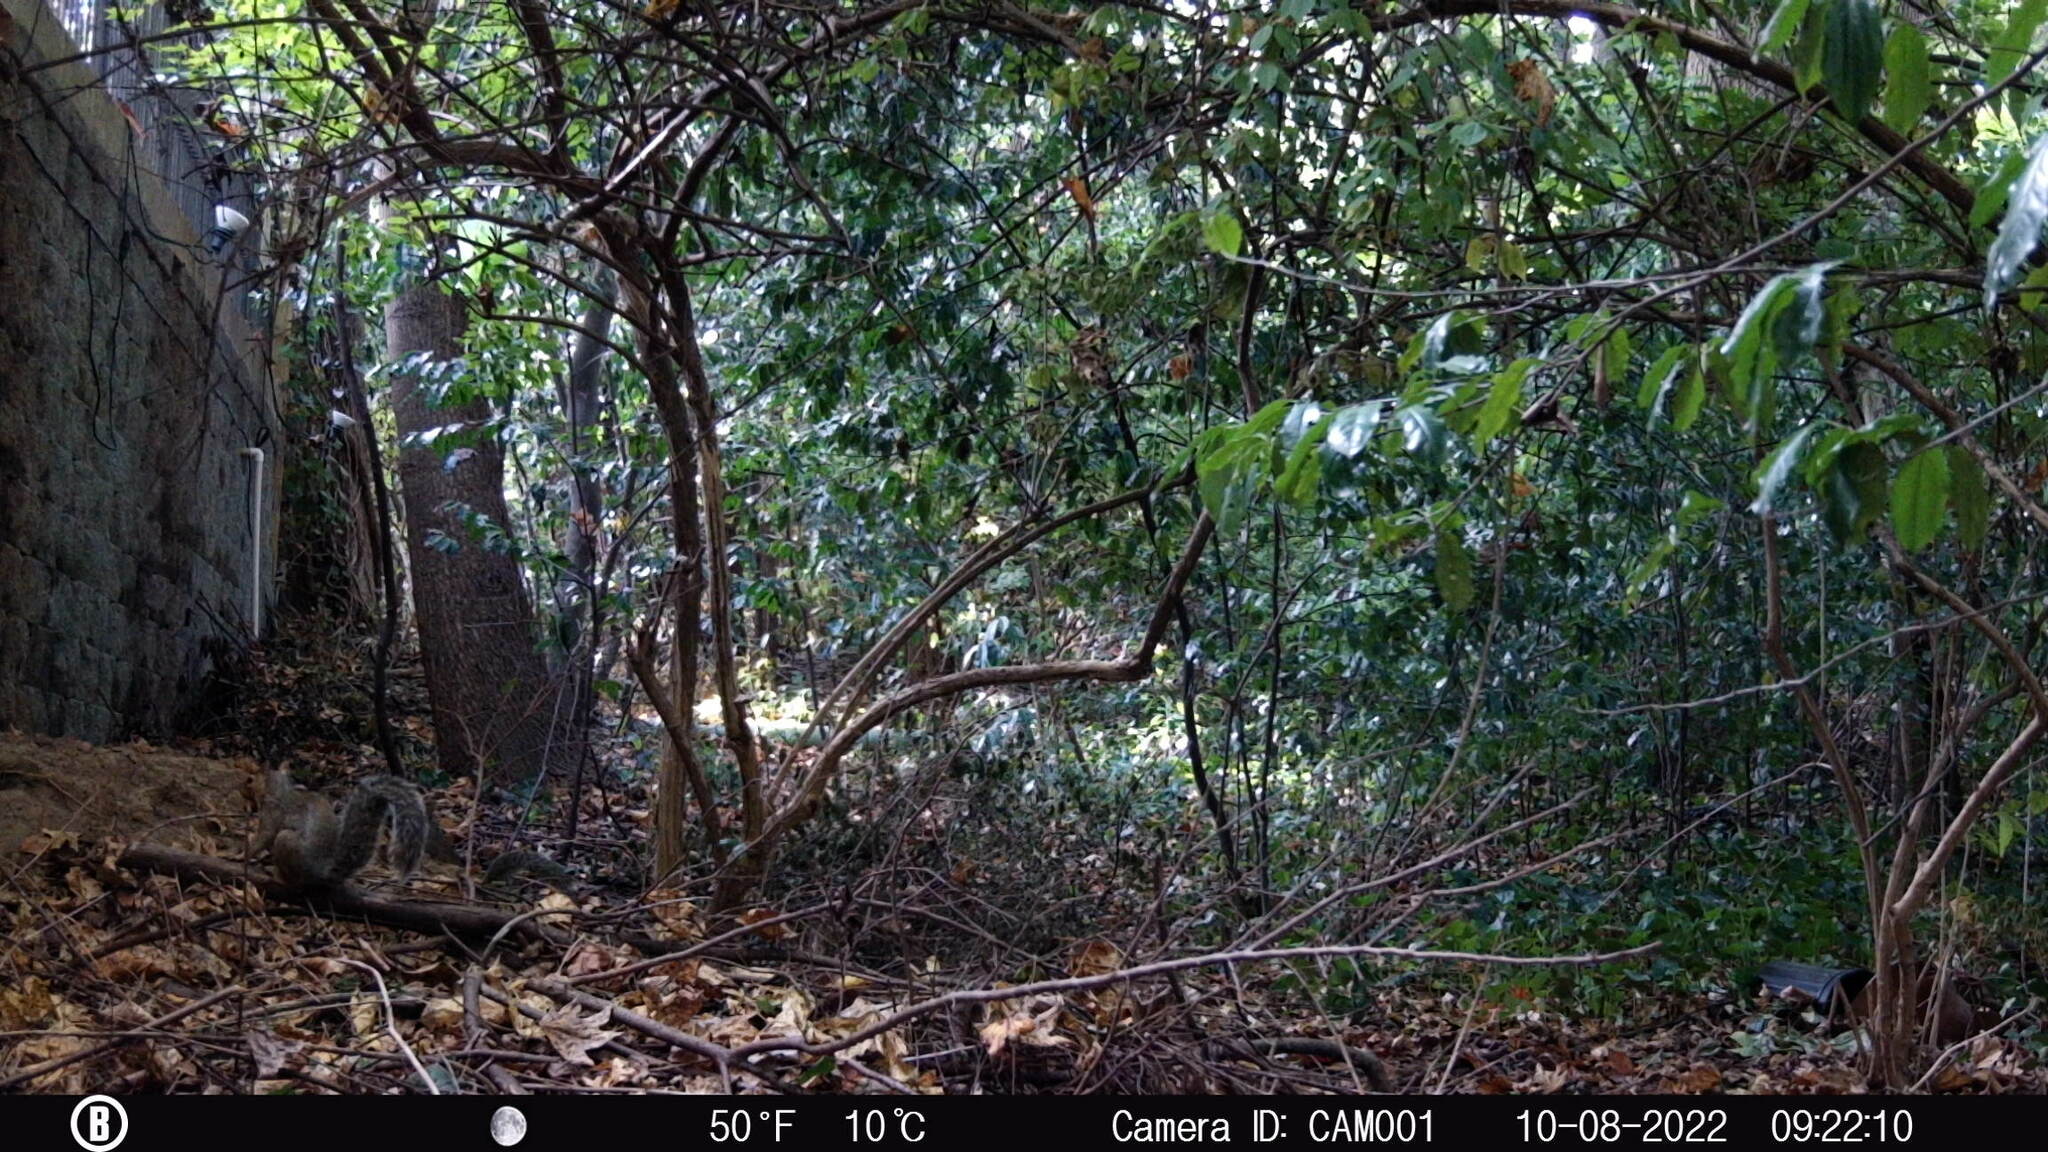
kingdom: Animalia
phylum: Chordata
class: Mammalia
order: Rodentia
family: Sciuridae
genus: Sciurus
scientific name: Sciurus carolinensis
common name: Eastern gray squirrel
